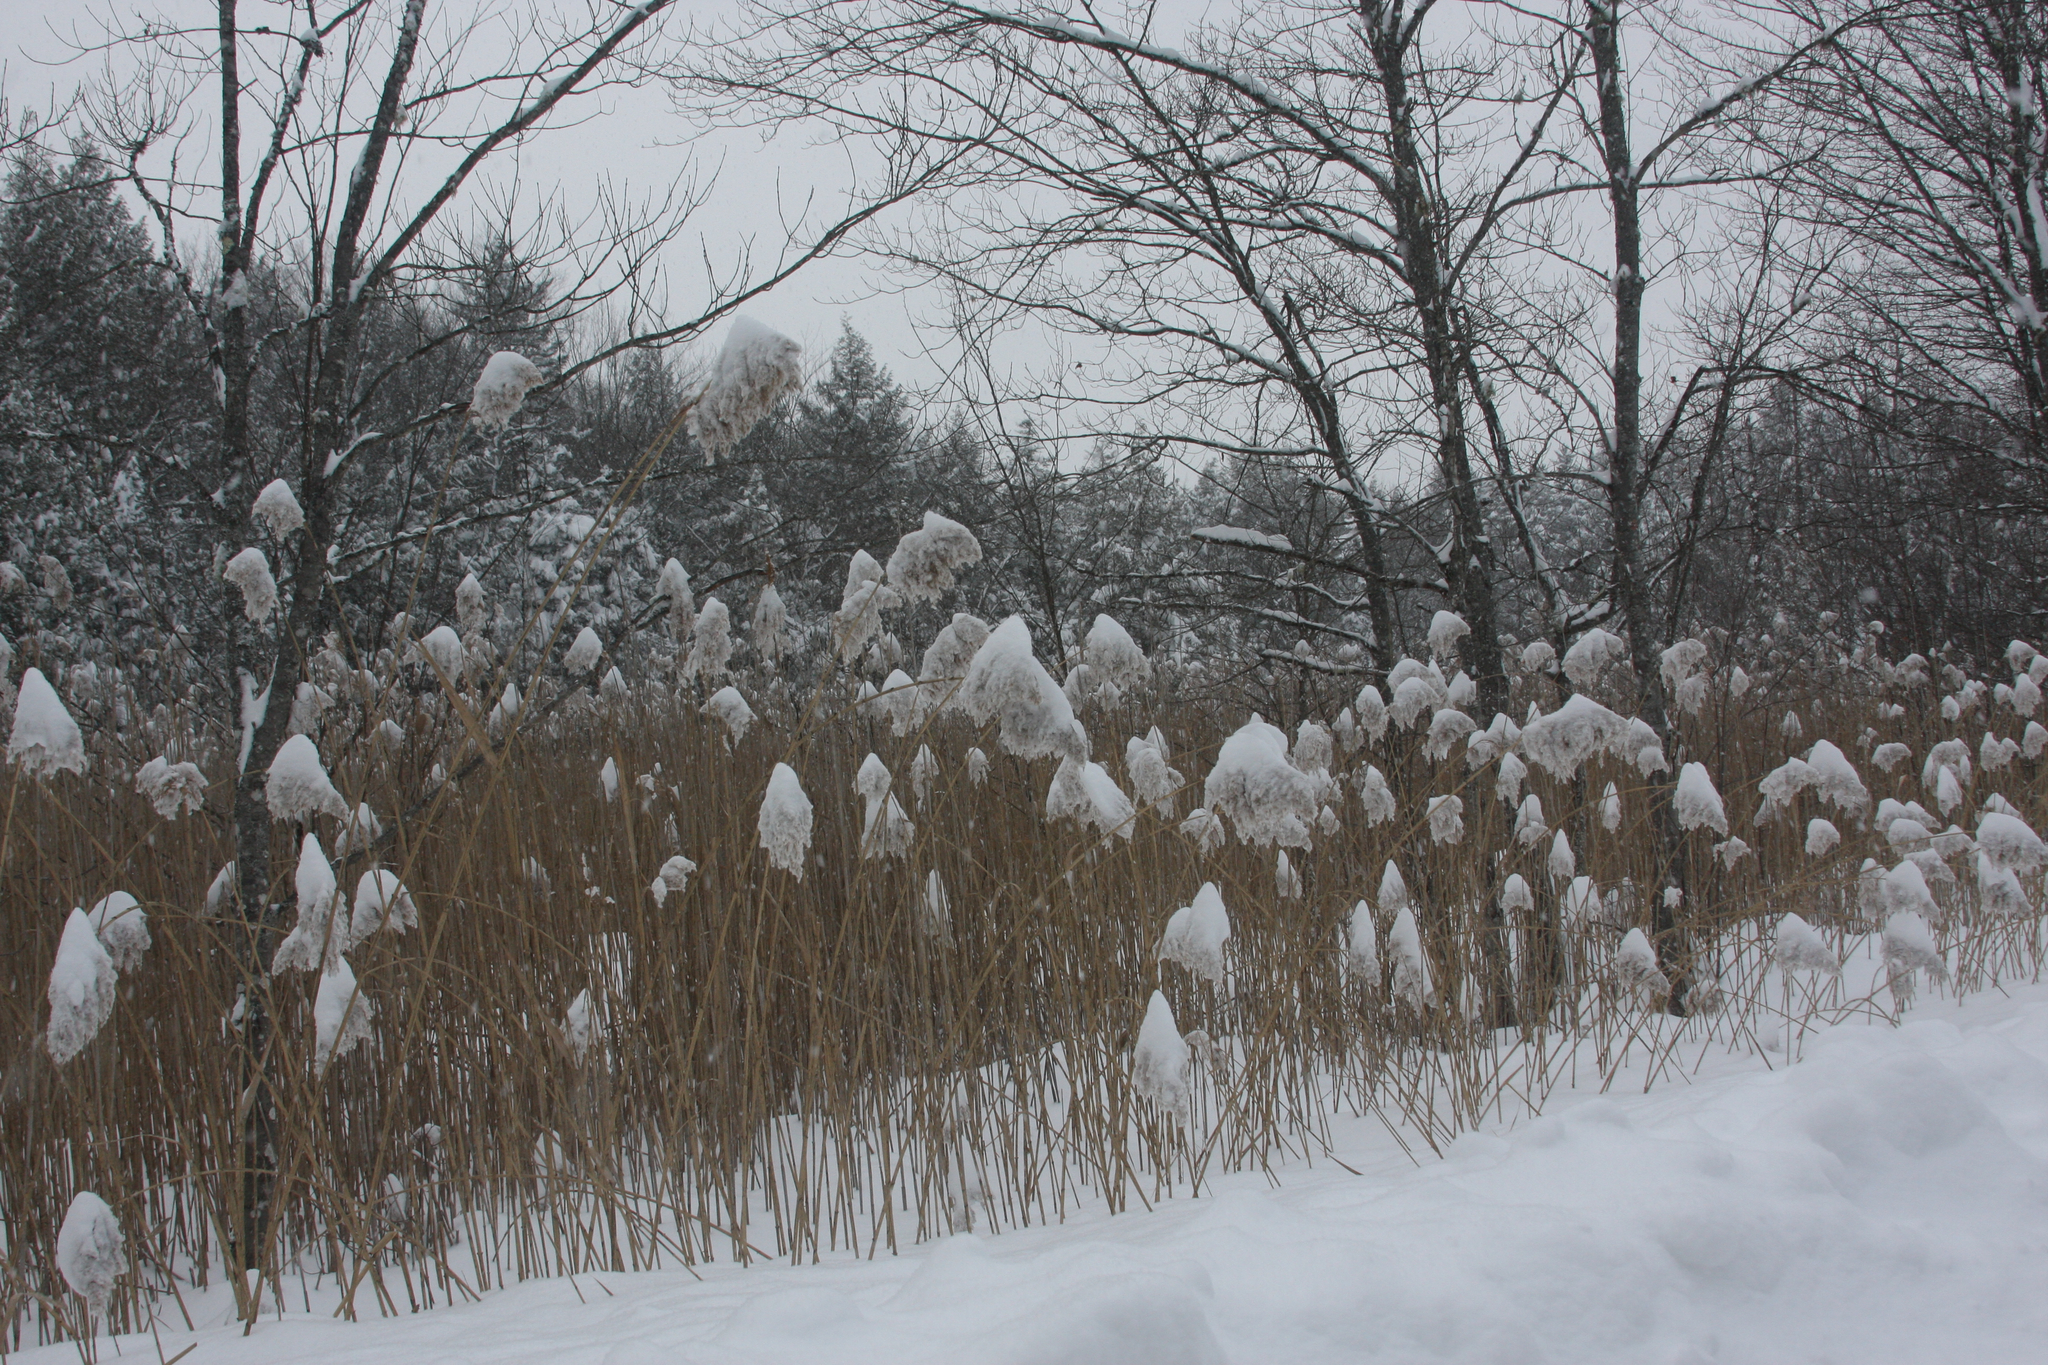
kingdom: Plantae
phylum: Tracheophyta
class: Liliopsida
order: Poales
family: Poaceae
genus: Phragmites
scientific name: Phragmites australis
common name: Common reed
